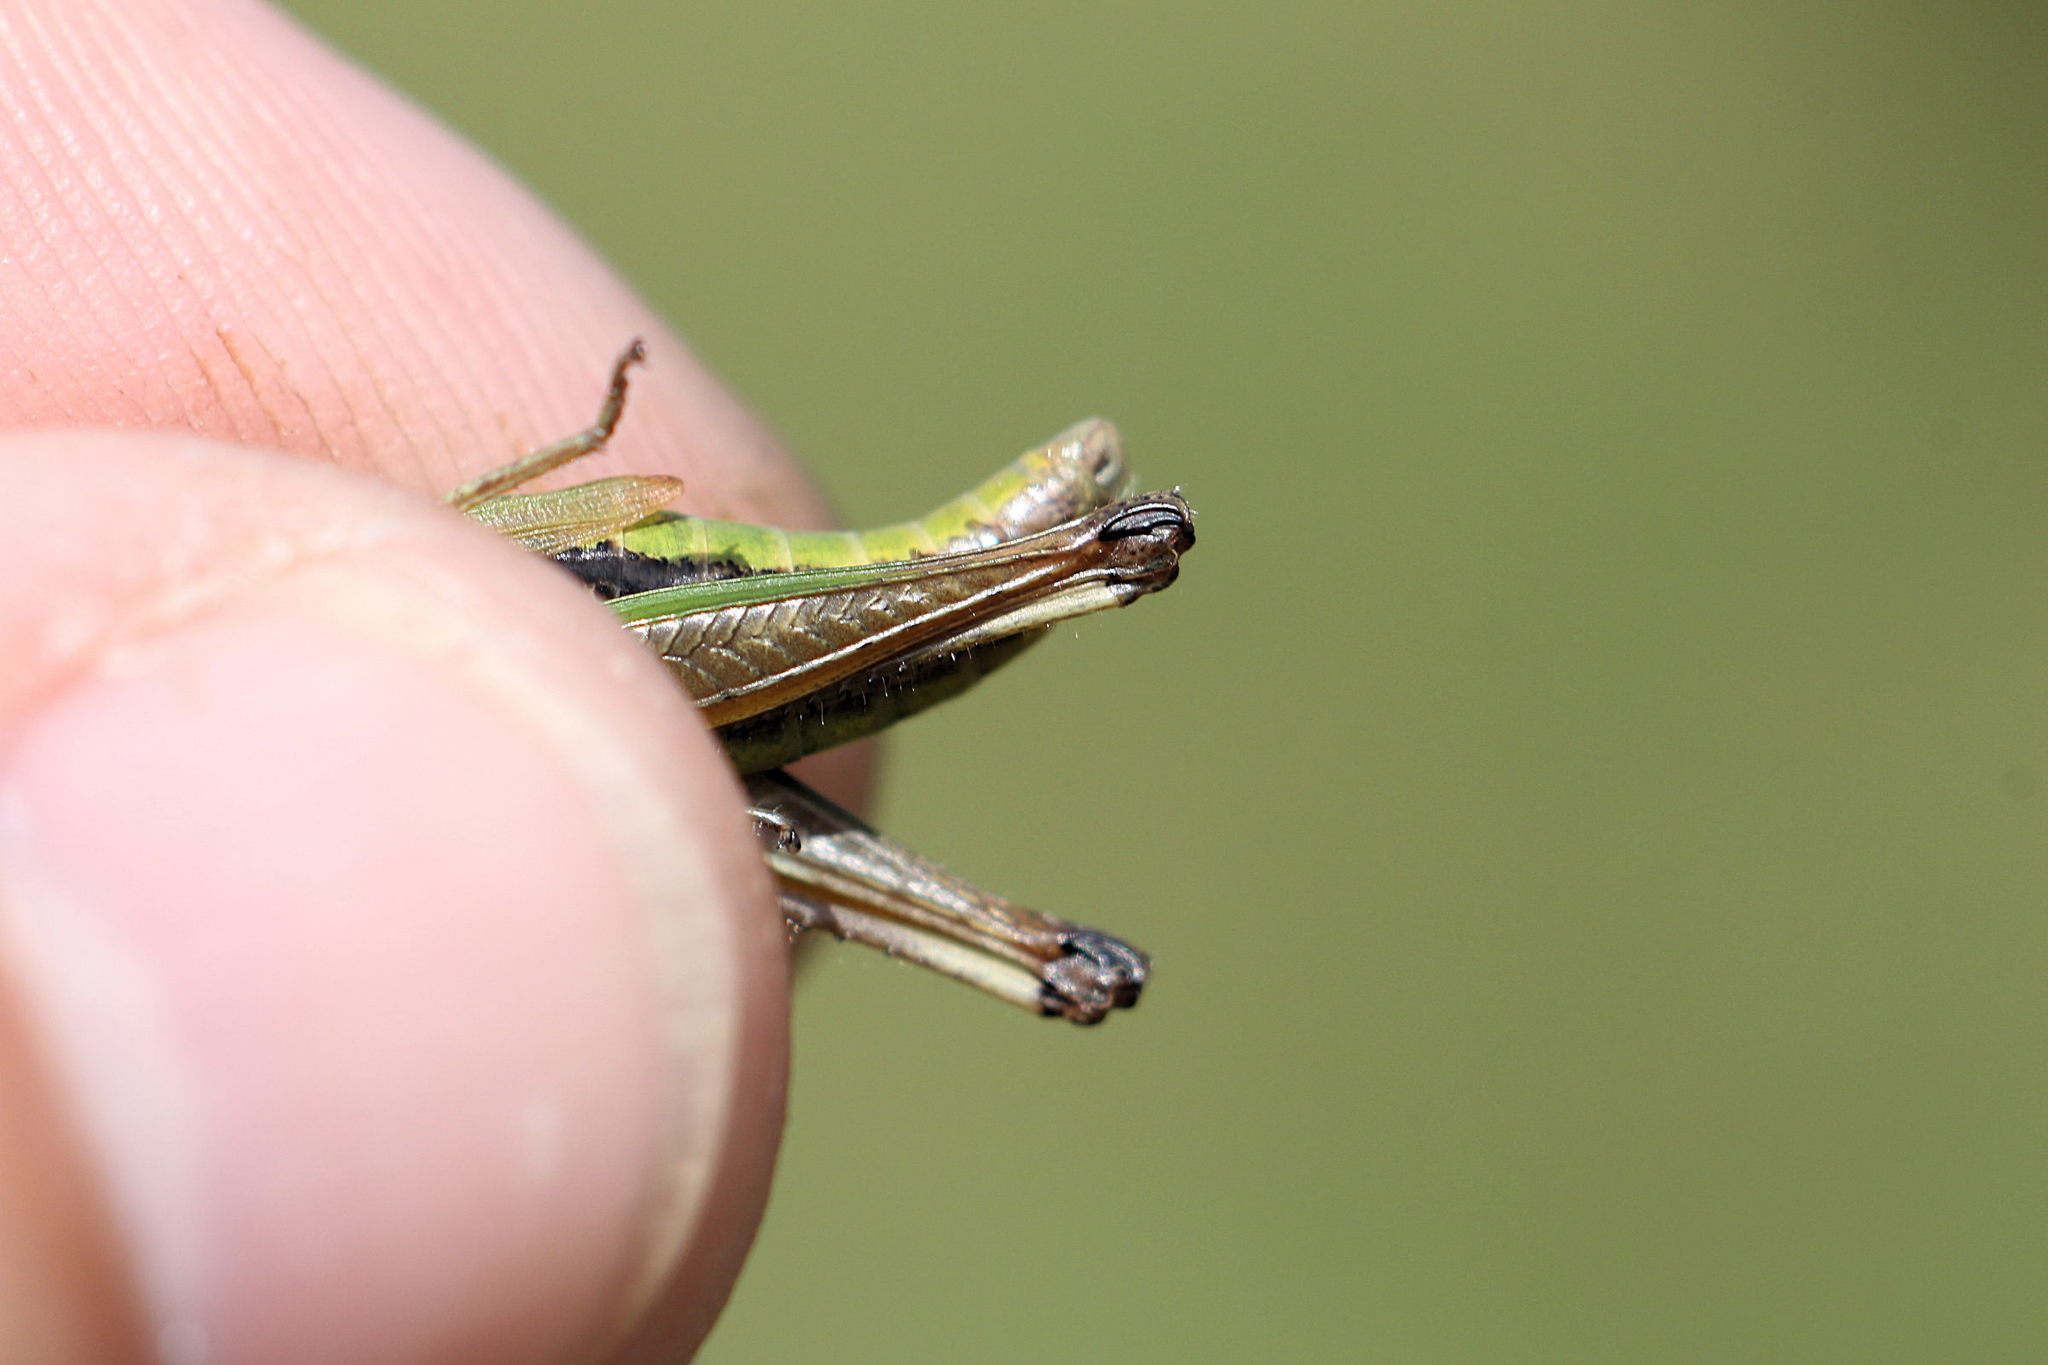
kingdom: Animalia
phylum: Arthropoda
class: Insecta
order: Orthoptera
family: Acrididae
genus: Pseudochorthippus
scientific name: Pseudochorthippus parallelus
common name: Meadow grasshopper
